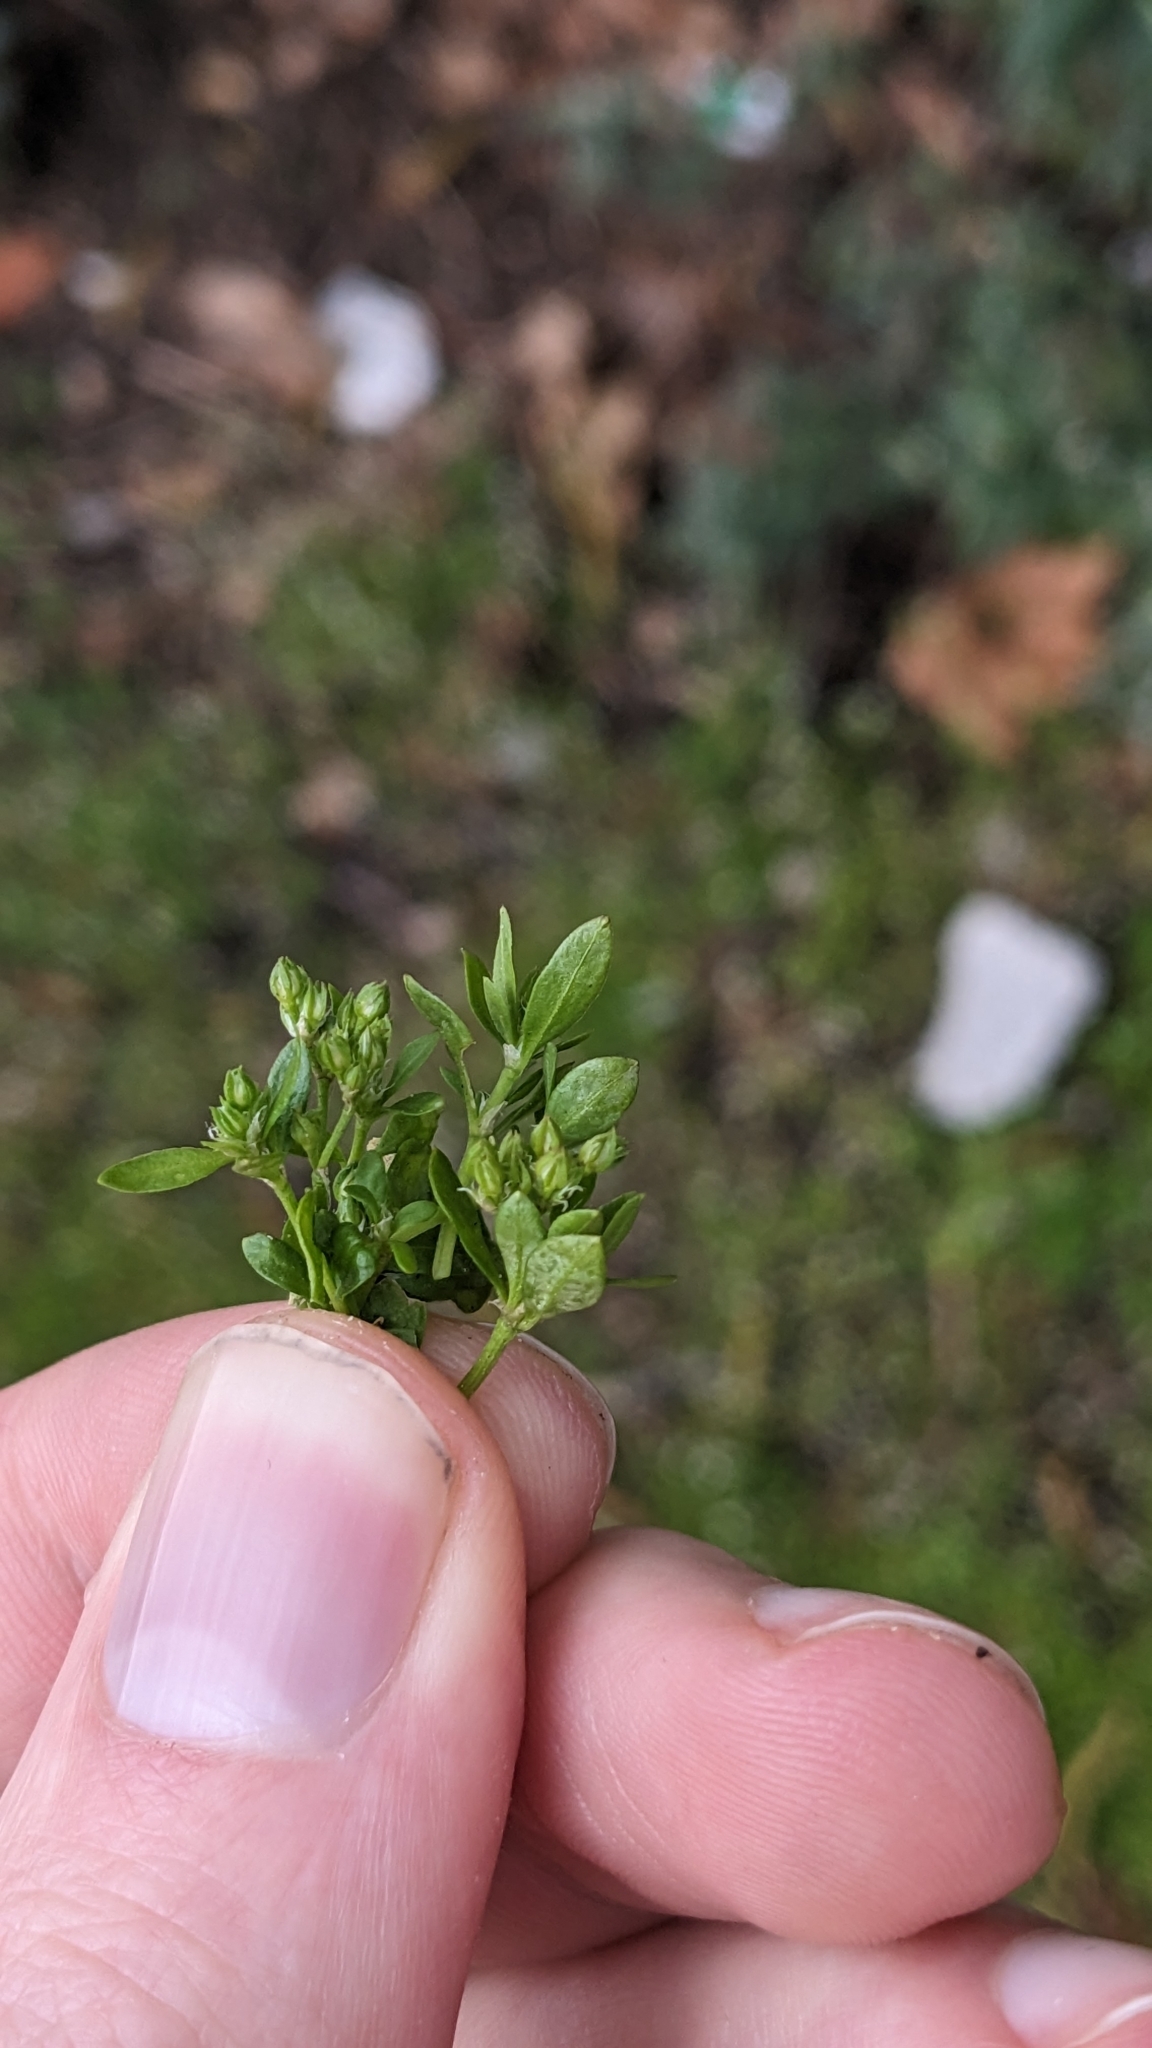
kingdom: Plantae
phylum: Tracheophyta
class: Magnoliopsida
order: Caryophyllales
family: Caryophyllaceae
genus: Polycarpon
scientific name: Polycarpon tetraphyllum
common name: Four-leaved all-seed
